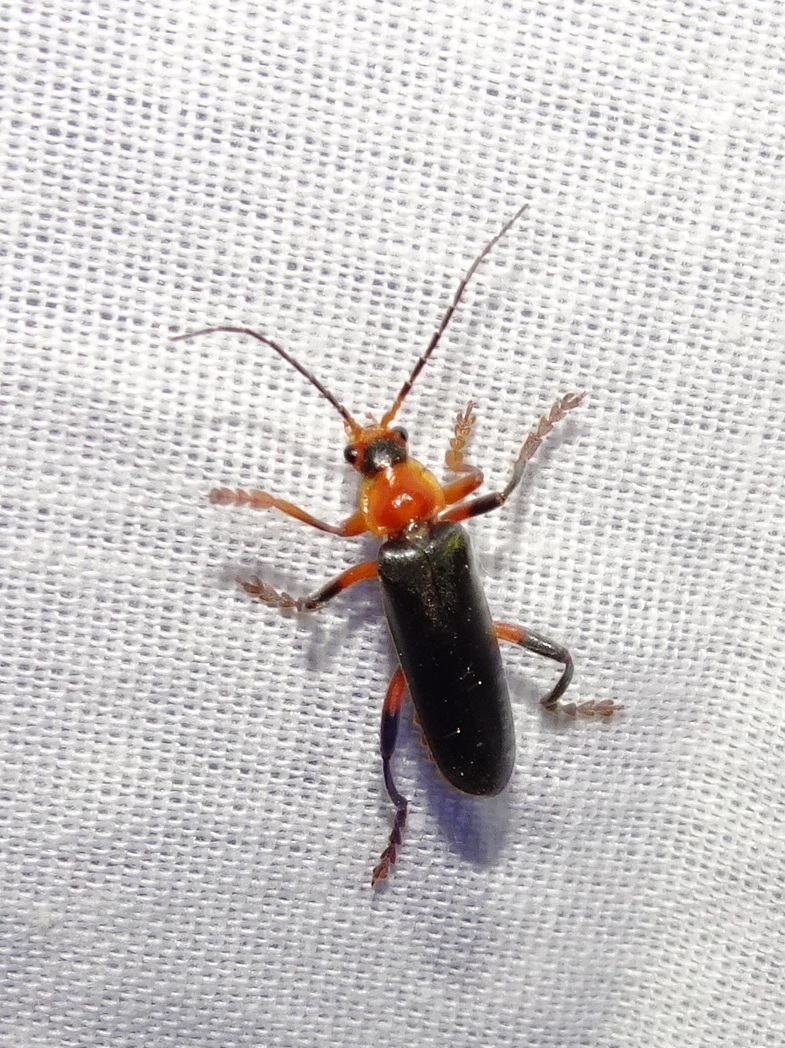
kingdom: Animalia
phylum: Arthropoda
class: Insecta
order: Coleoptera
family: Cantharidae
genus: Cantharis
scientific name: Cantharis livida
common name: Livid soldier beetle
